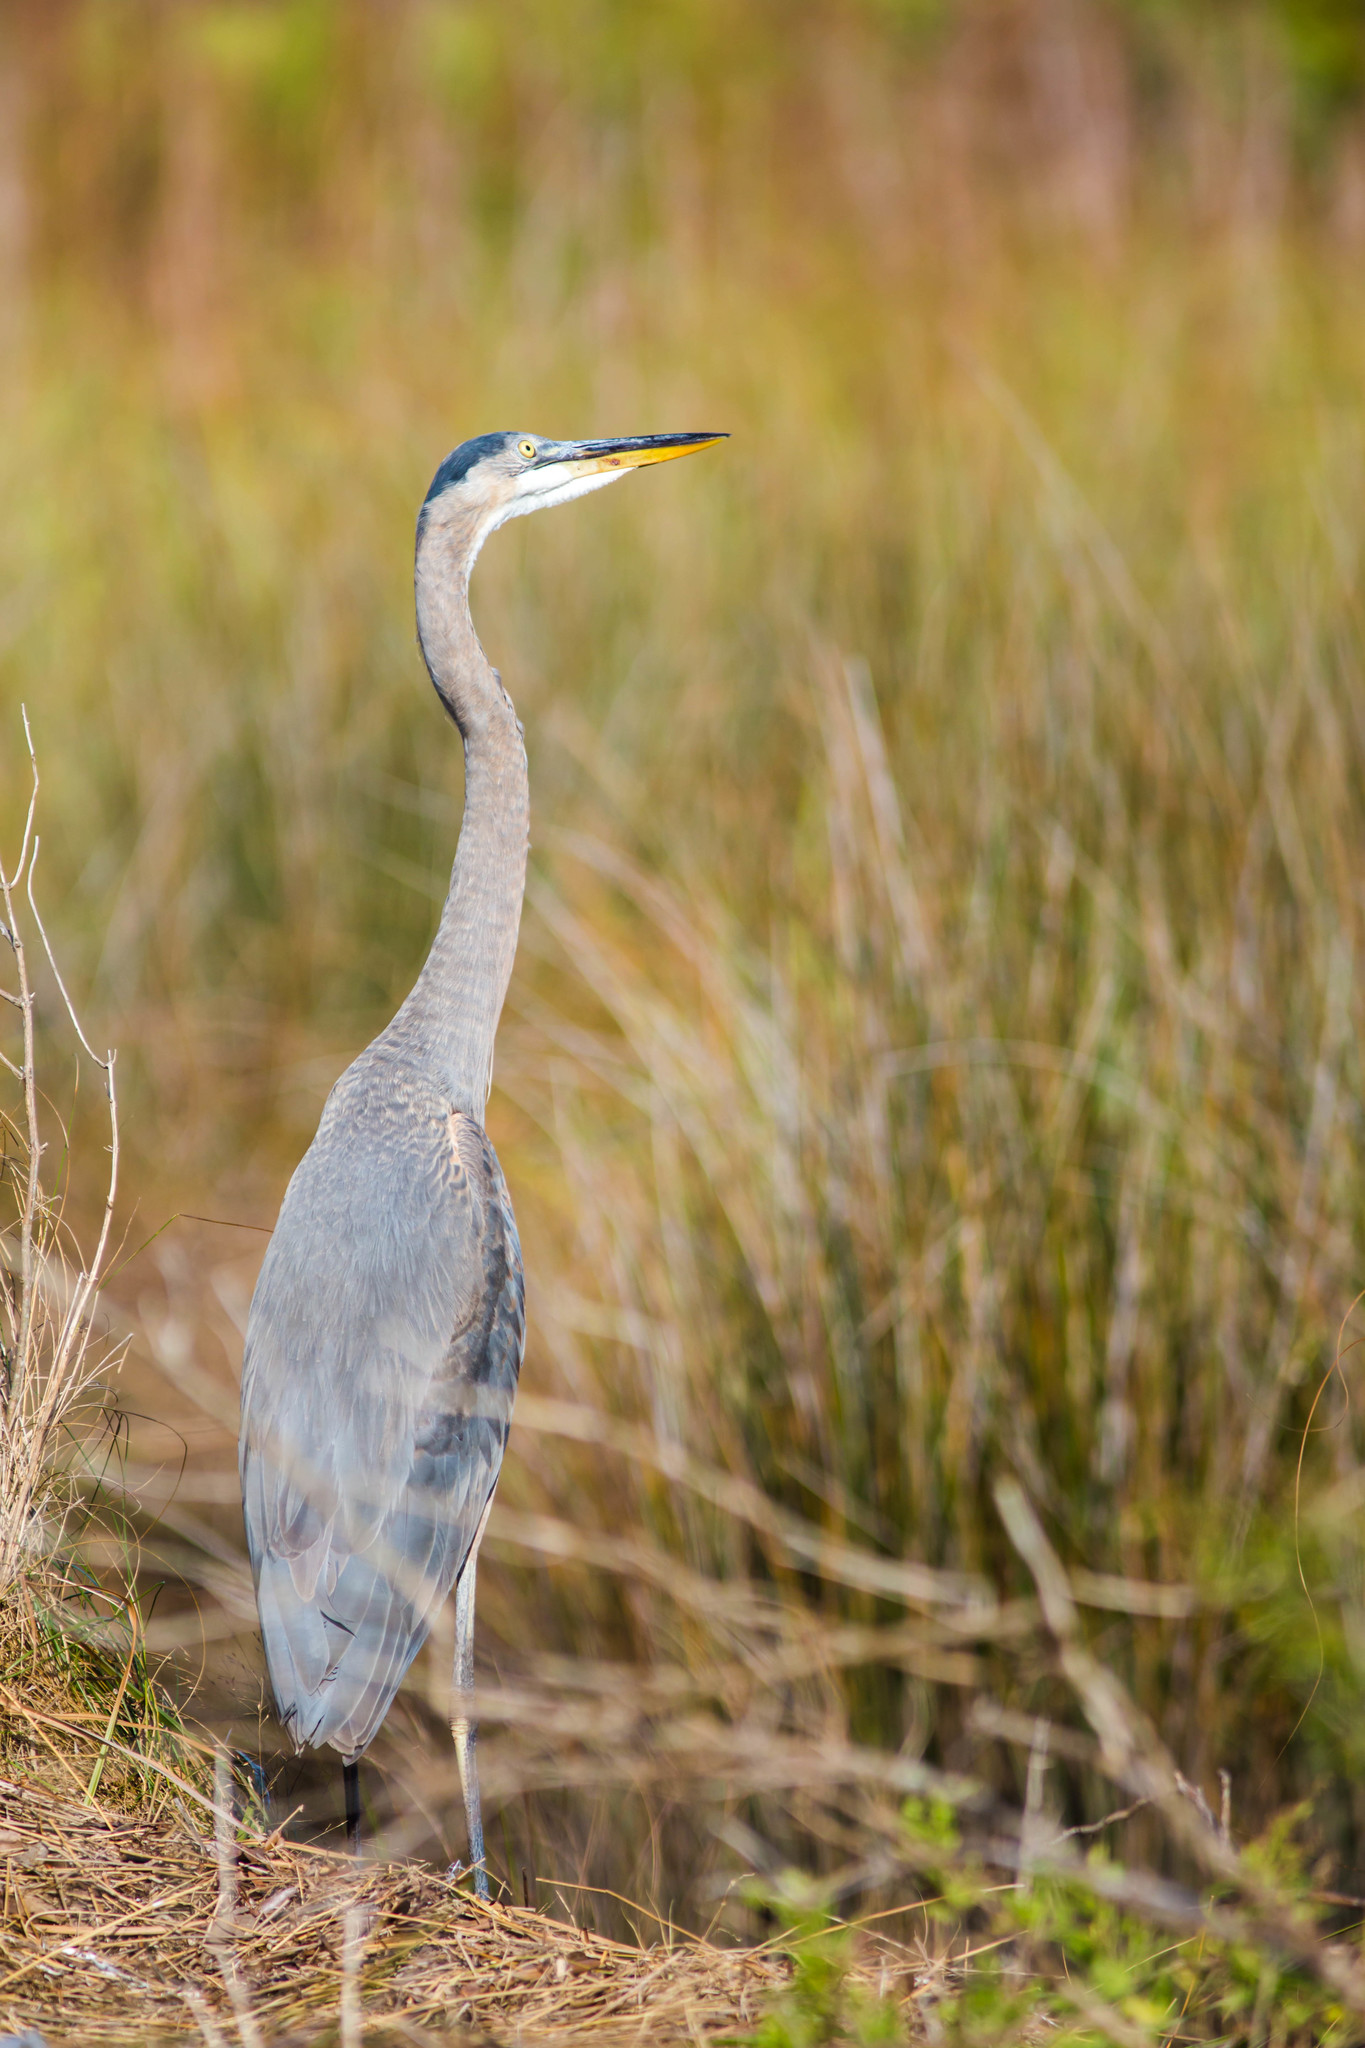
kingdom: Animalia
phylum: Chordata
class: Aves
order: Pelecaniformes
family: Ardeidae
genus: Ardea
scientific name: Ardea herodias
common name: Great blue heron
